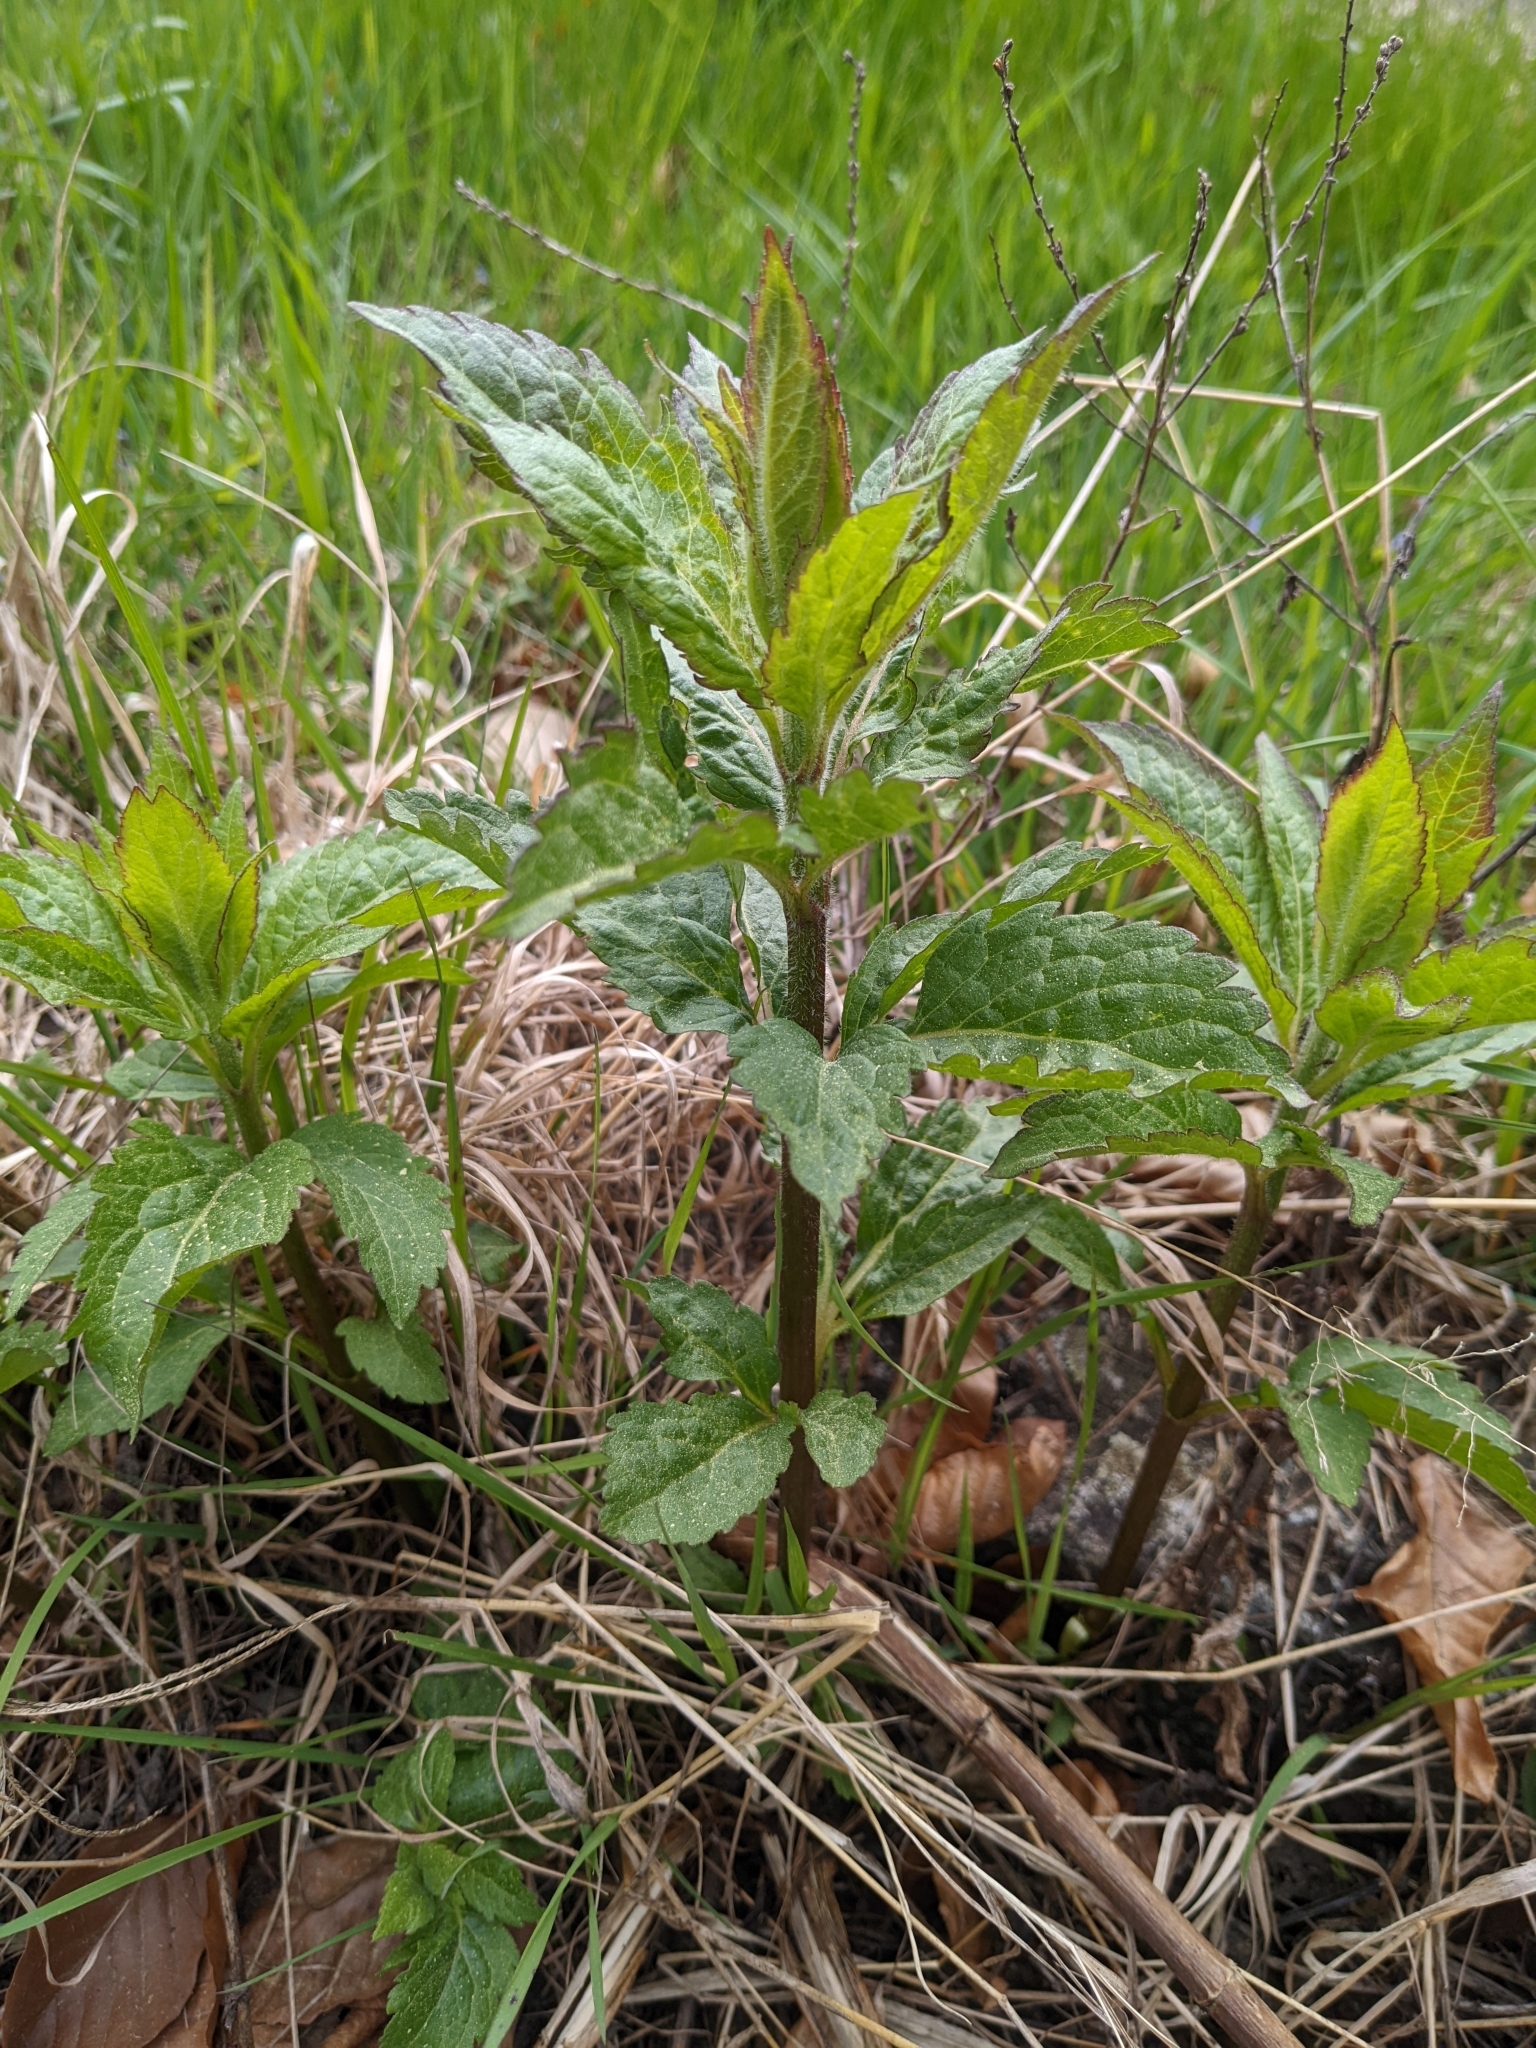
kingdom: Plantae
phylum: Tracheophyta
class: Magnoliopsida
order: Asterales
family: Asteraceae
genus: Eupatorium
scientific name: Eupatorium cannabinum
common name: Hemp-agrimony
